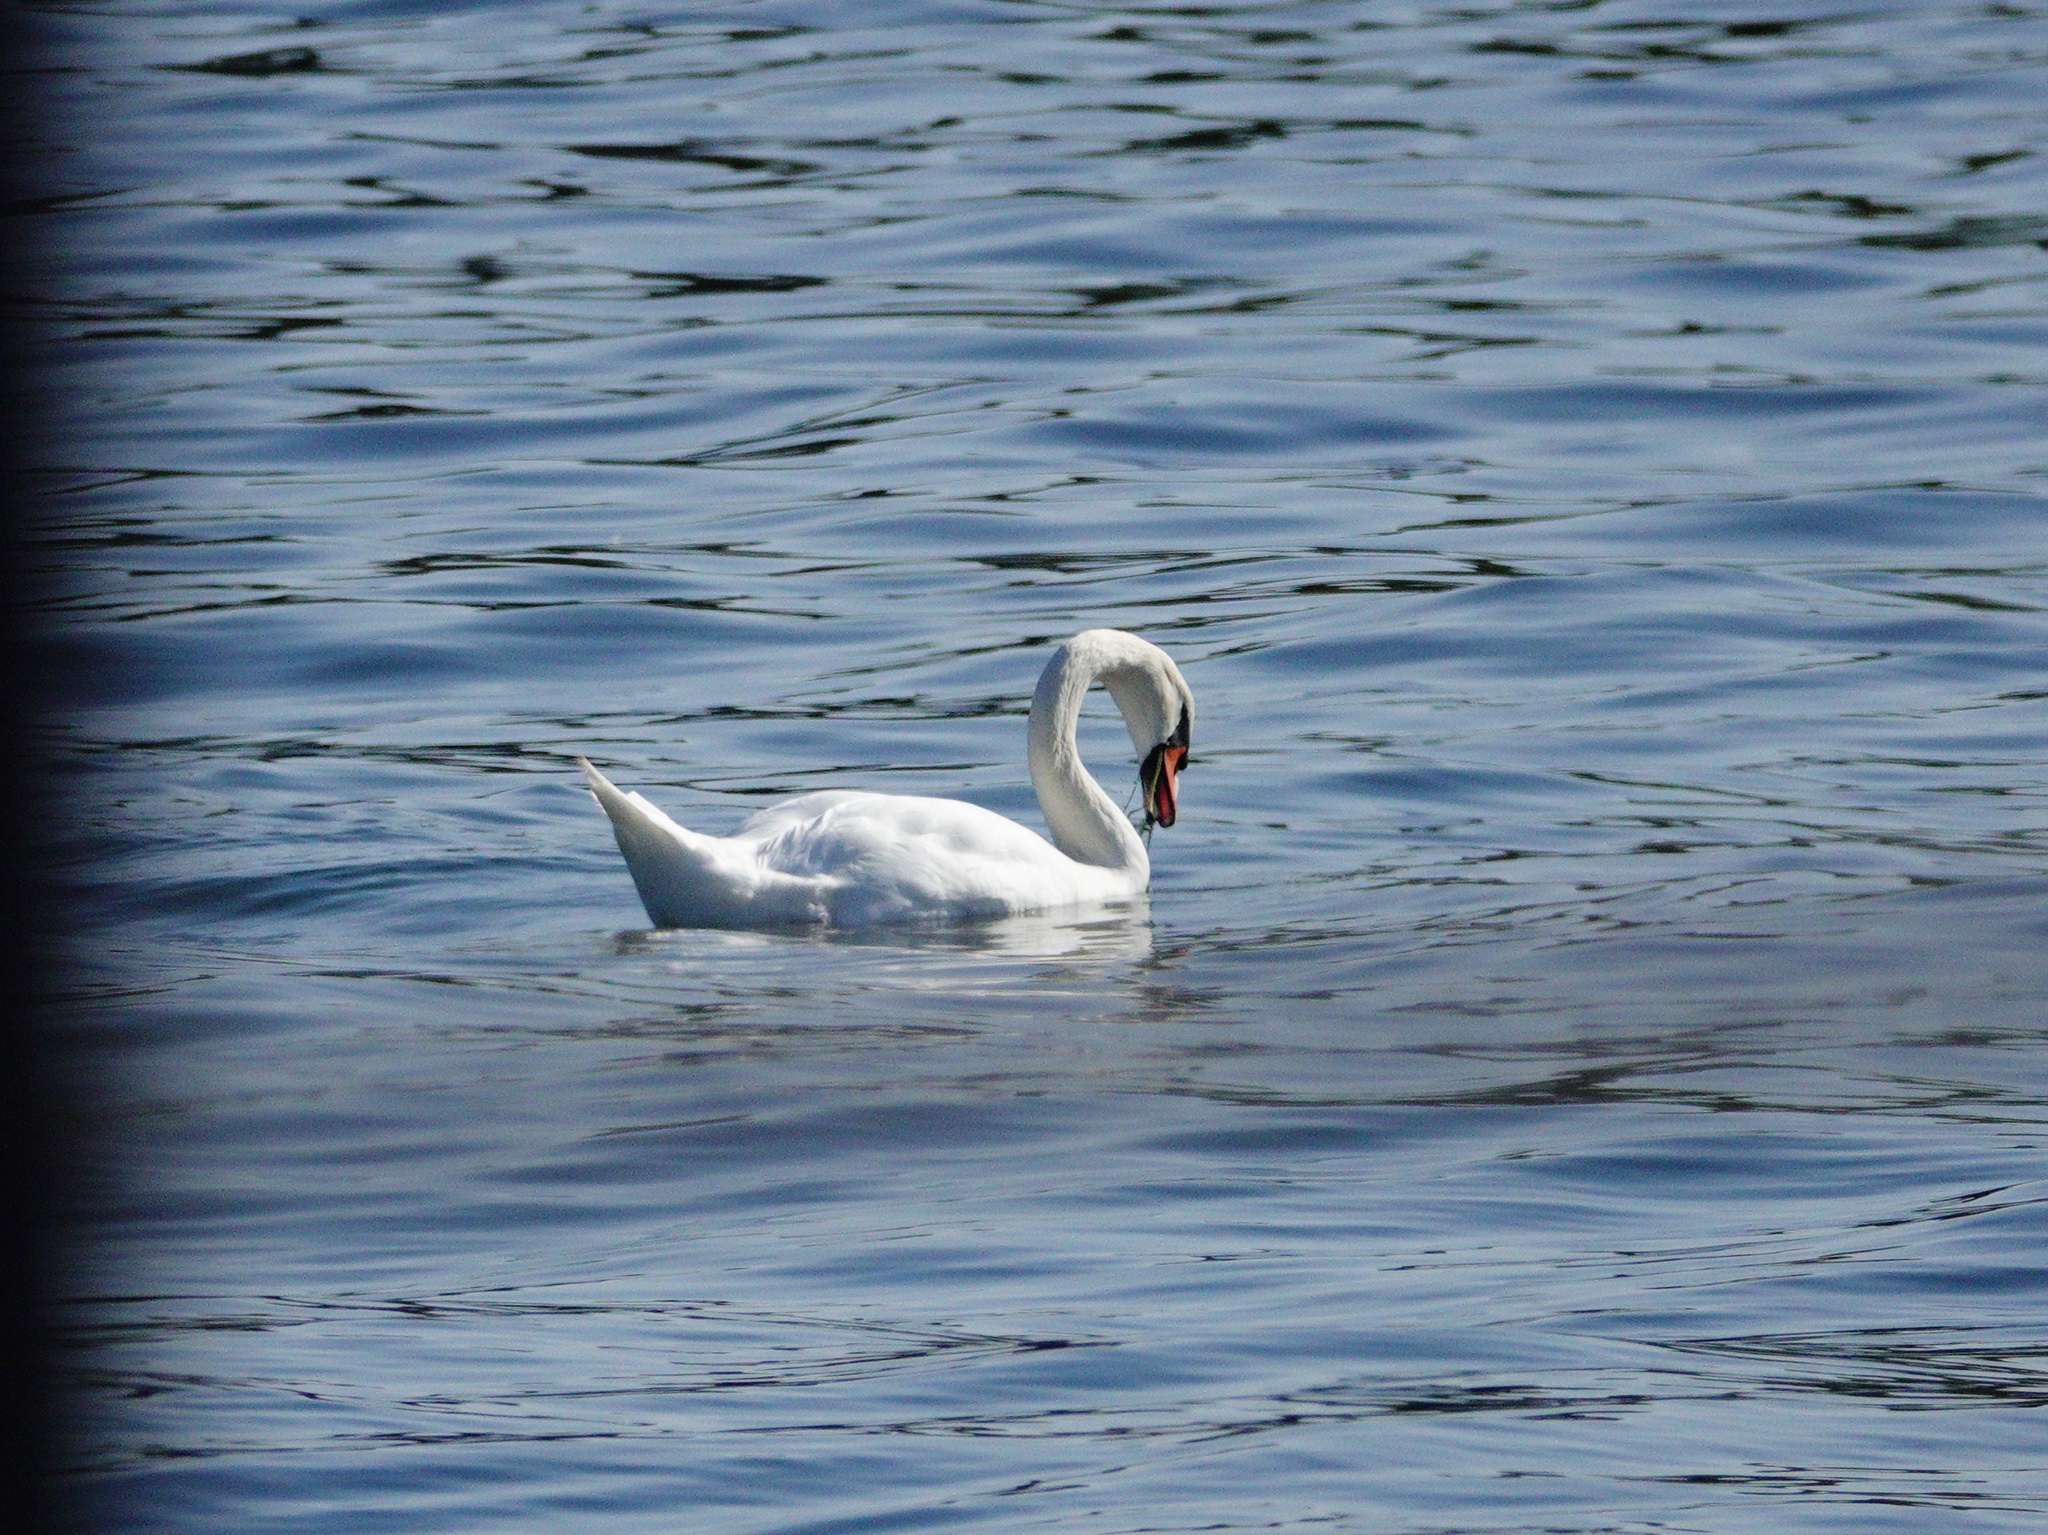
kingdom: Animalia
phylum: Chordata
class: Aves
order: Anseriformes
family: Anatidae
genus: Cygnus
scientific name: Cygnus olor
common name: Mute swan
